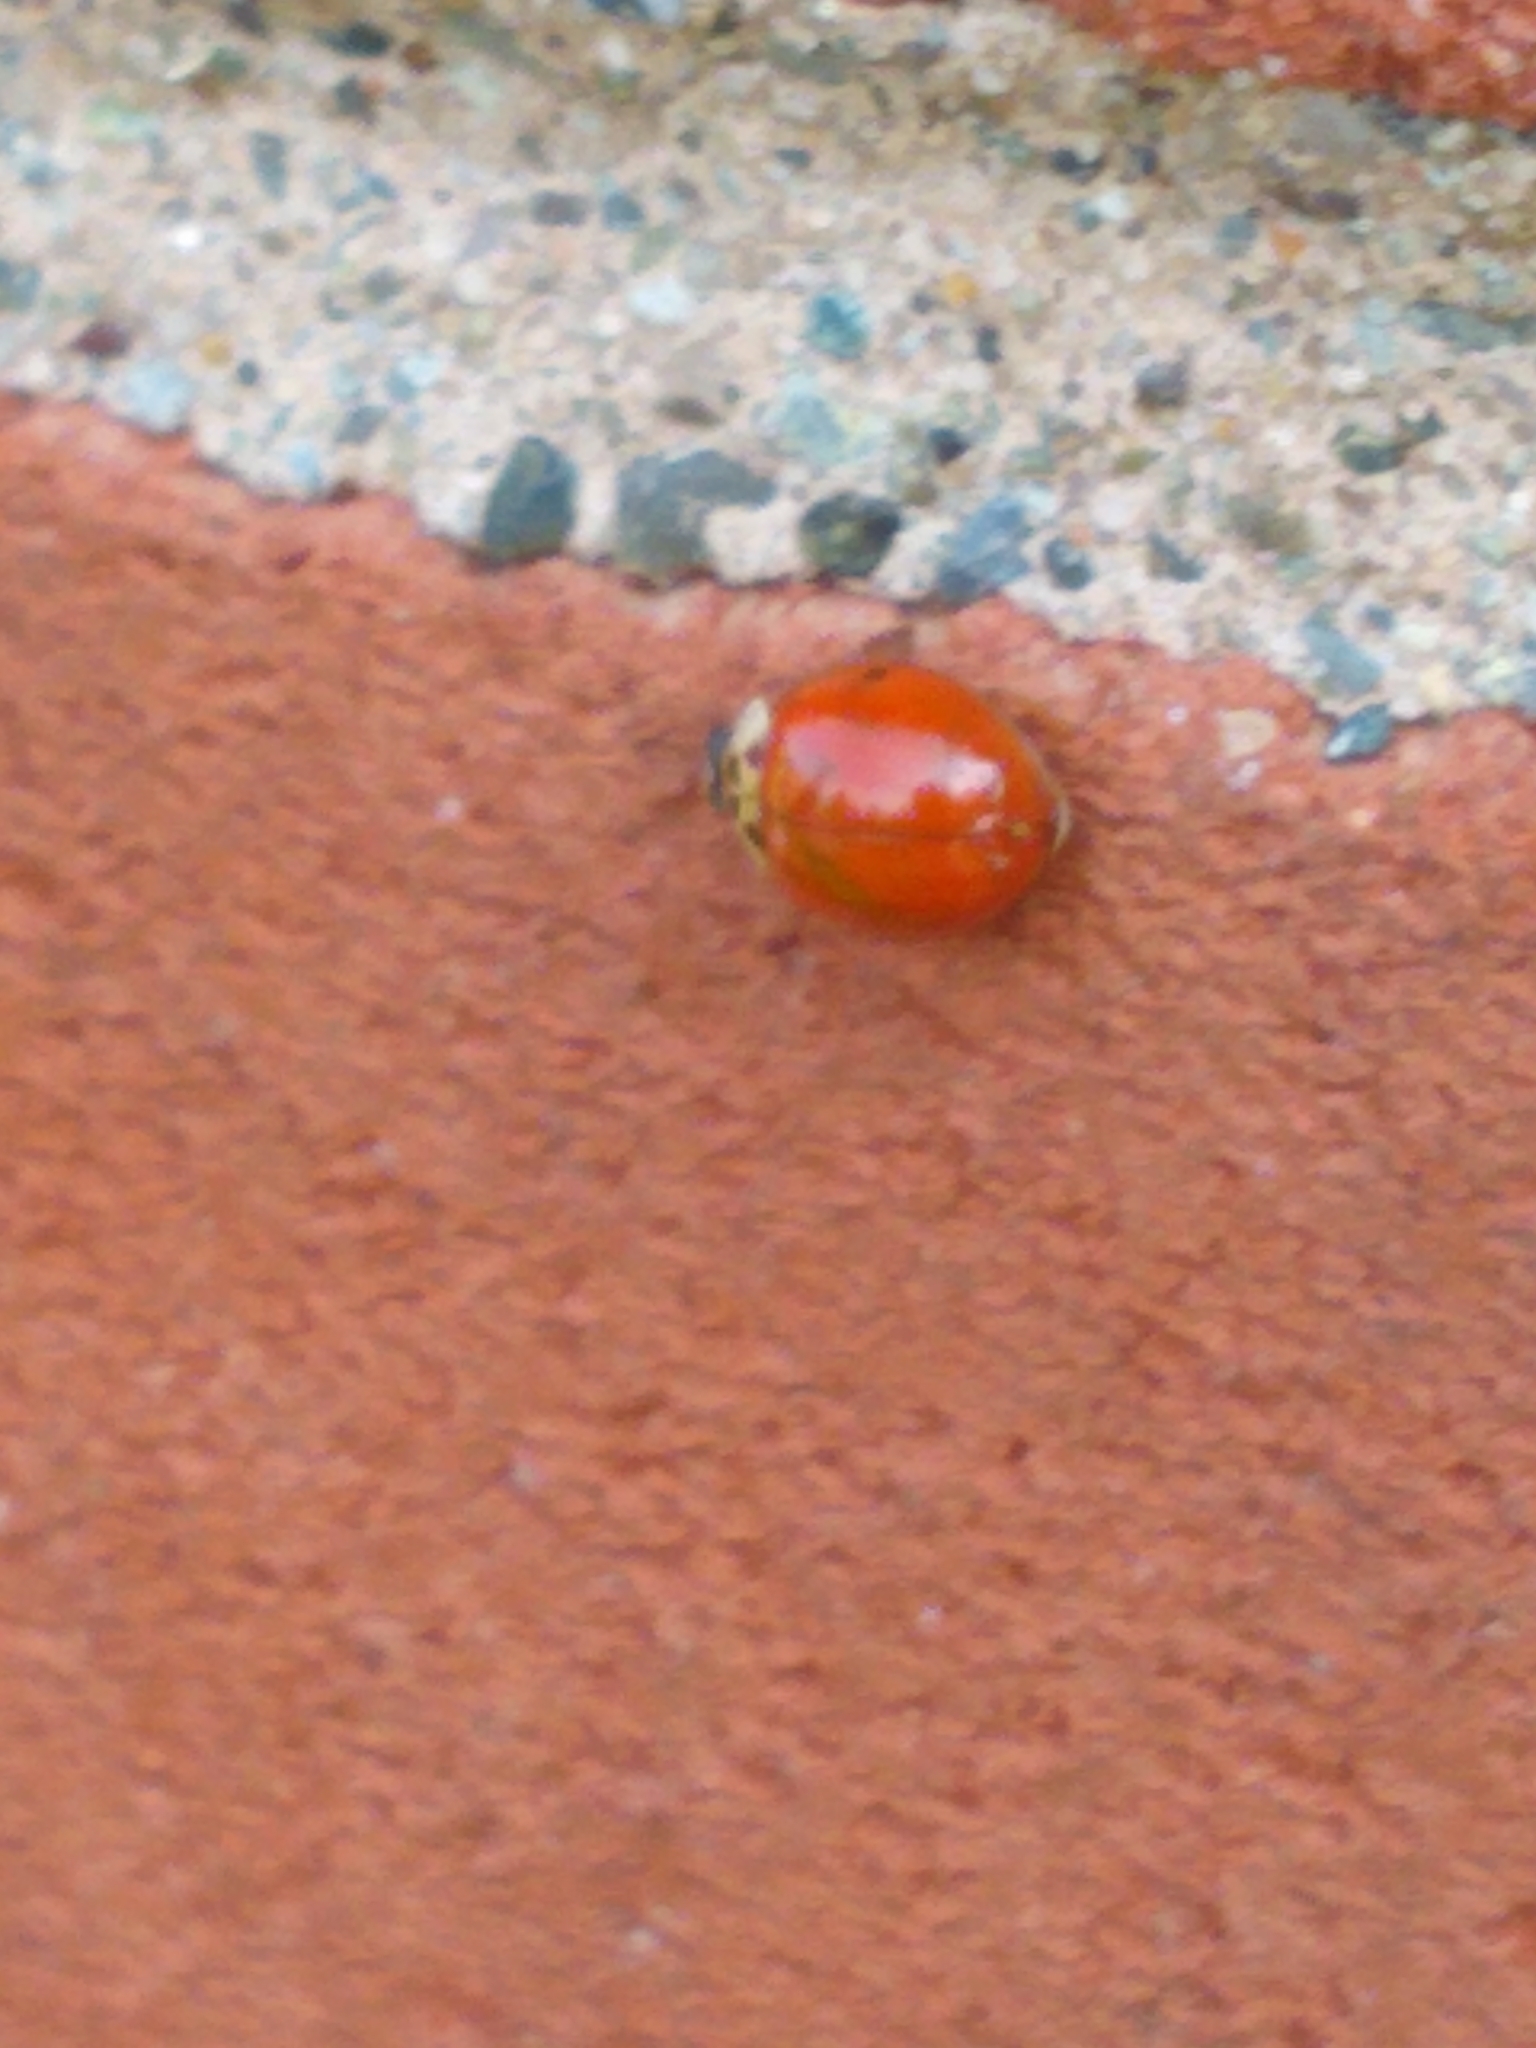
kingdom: Animalia
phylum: Arthropoda
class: Insecta
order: Coleoptera
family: Coccinellidae
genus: Harmonia
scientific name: Harmonia axyridis
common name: Harlequin ladybird
